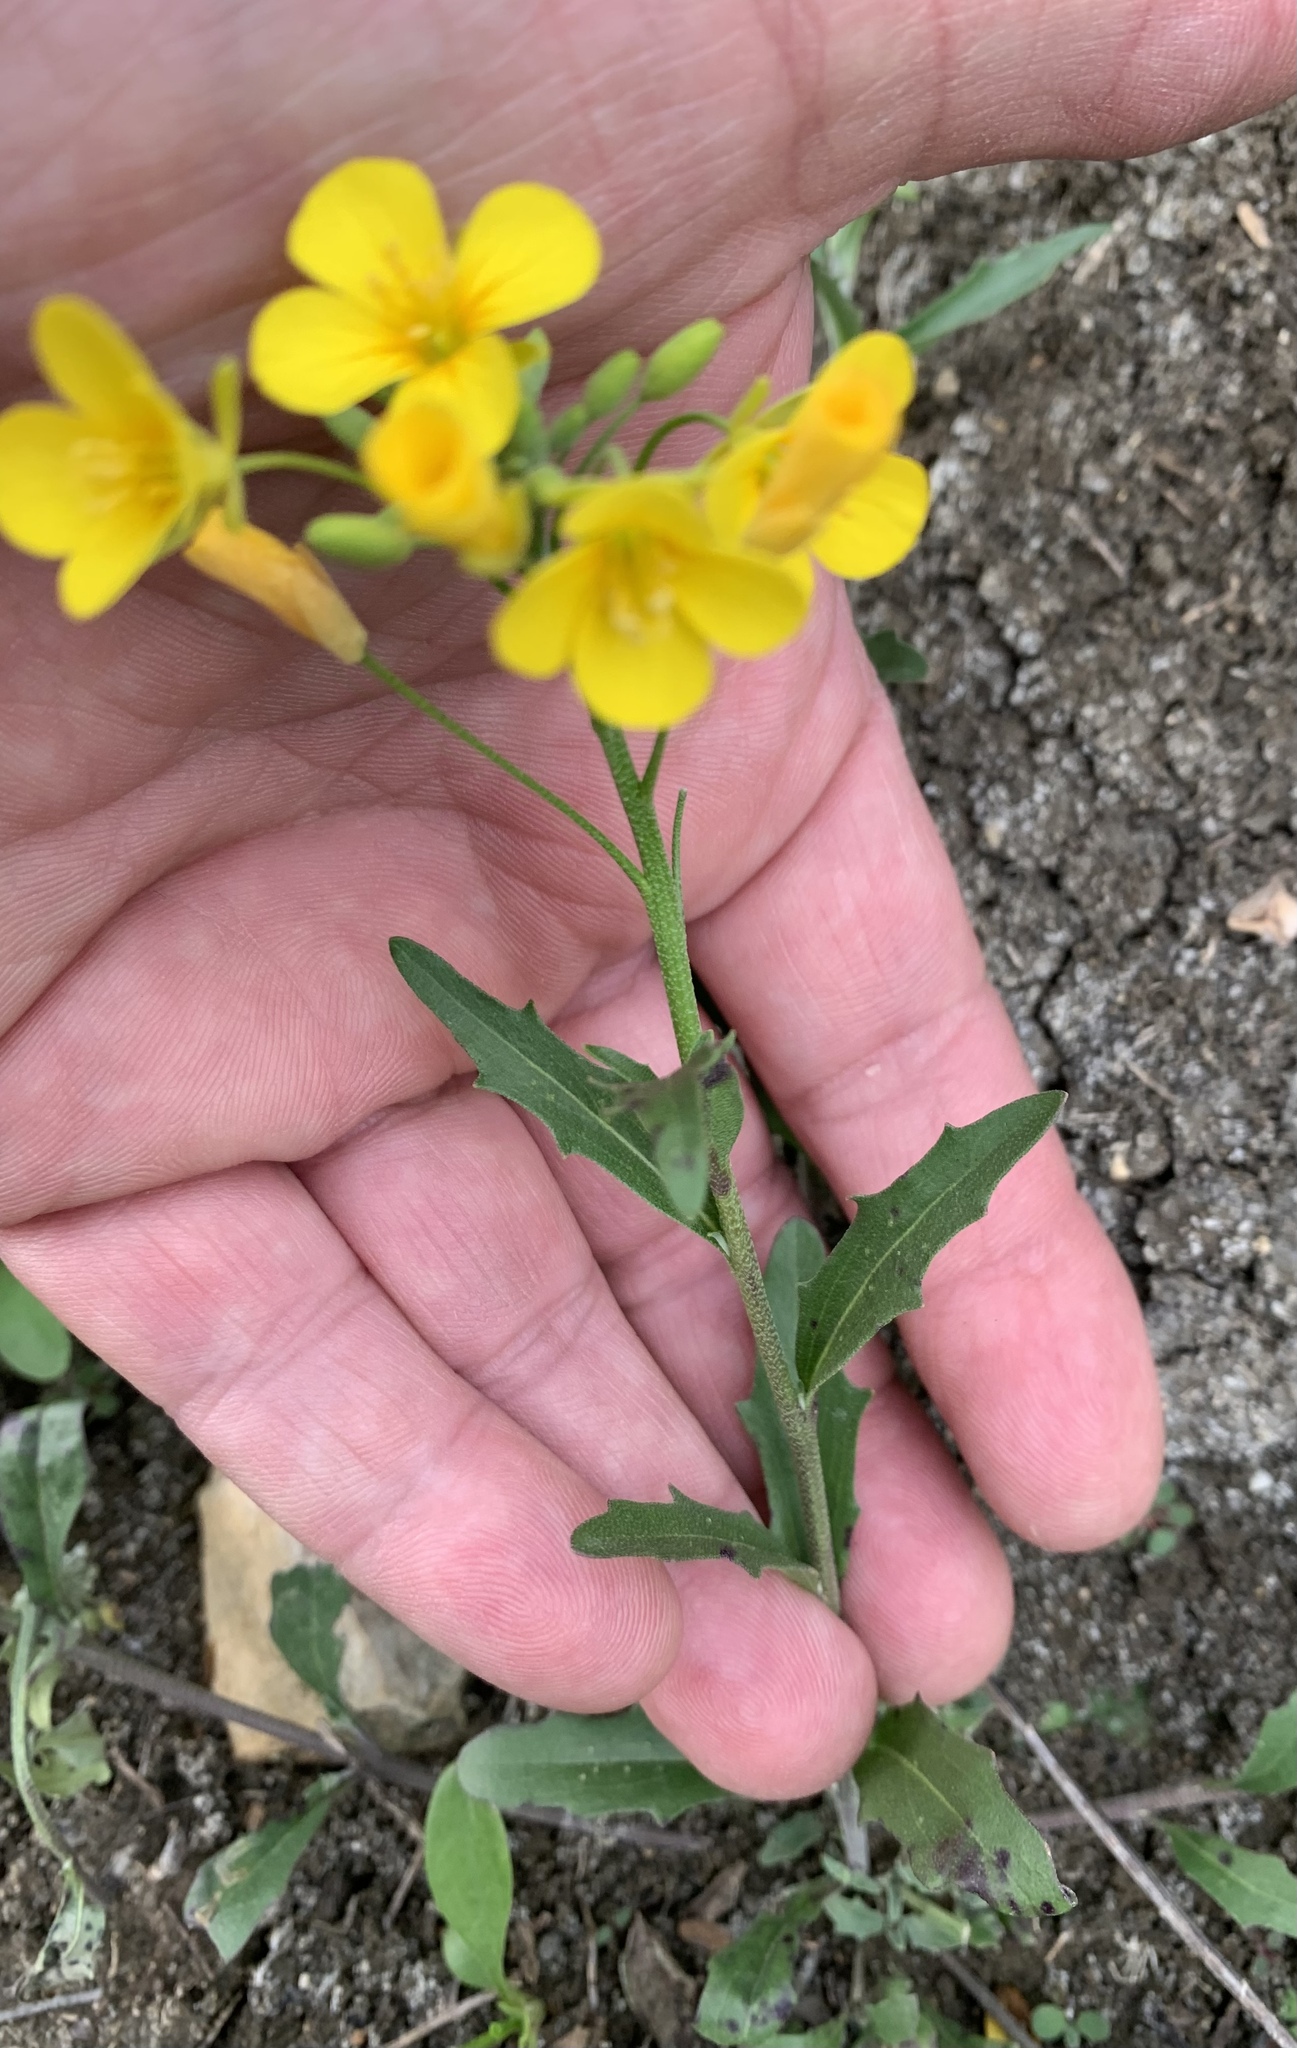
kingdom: Plantae
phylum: Tracheophyta
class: Magnoliopsida
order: Brassicales
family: Brassicaceae
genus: Physaria
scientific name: Physaria gracilis
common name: Spreading bladderpod
